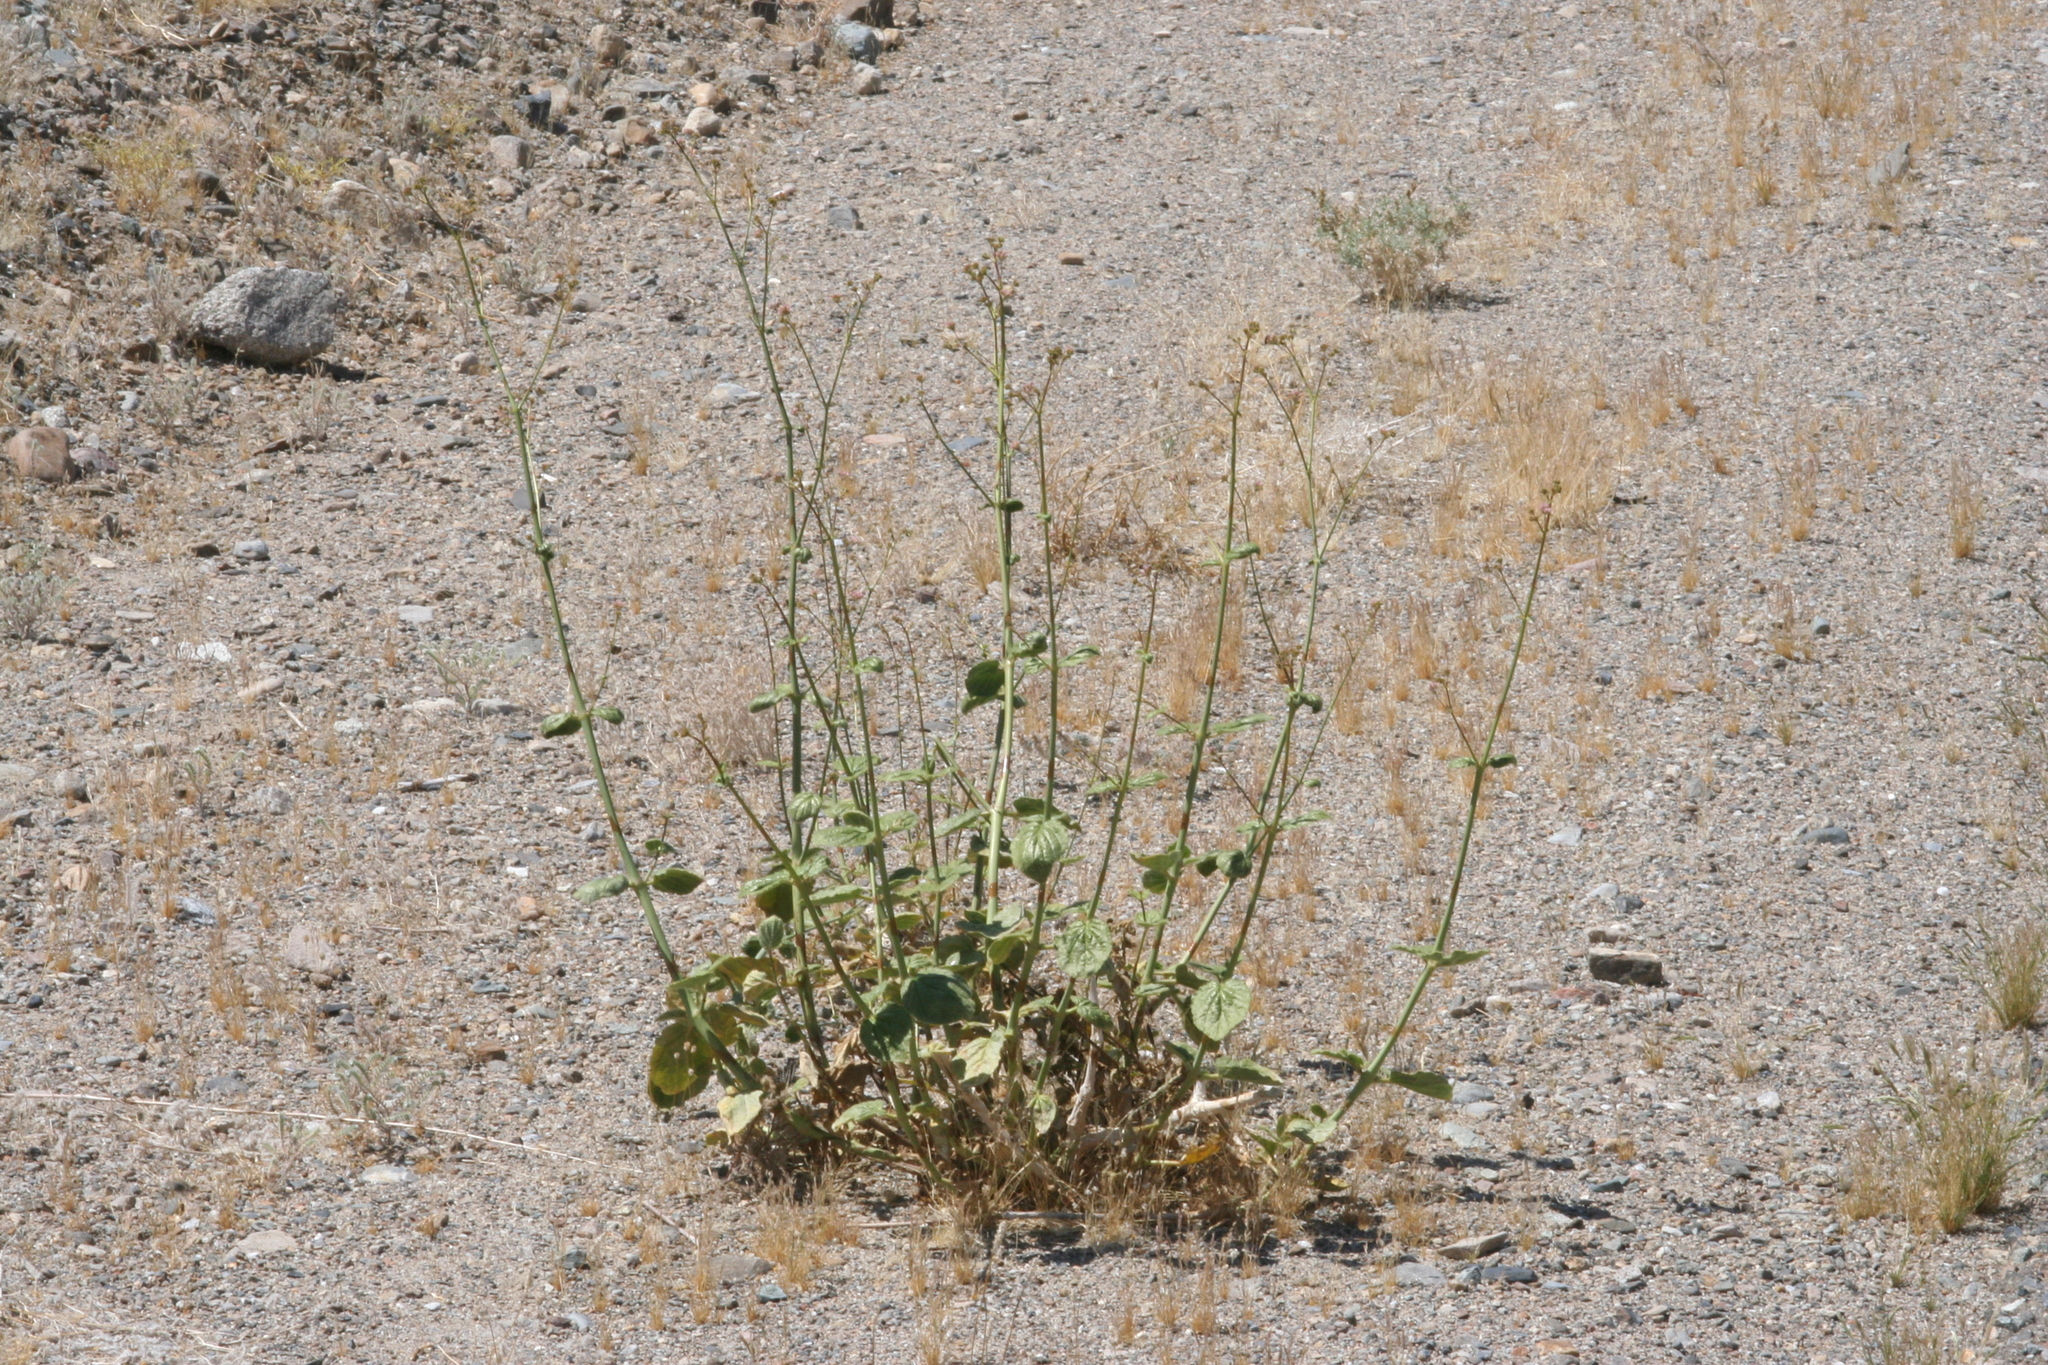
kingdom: Plantae
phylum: Tracheophyta
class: Magnoliopsida
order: Caryophyllales
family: Nyctaginaceae
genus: Anulocaulis
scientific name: Anulocaulis annulatus
